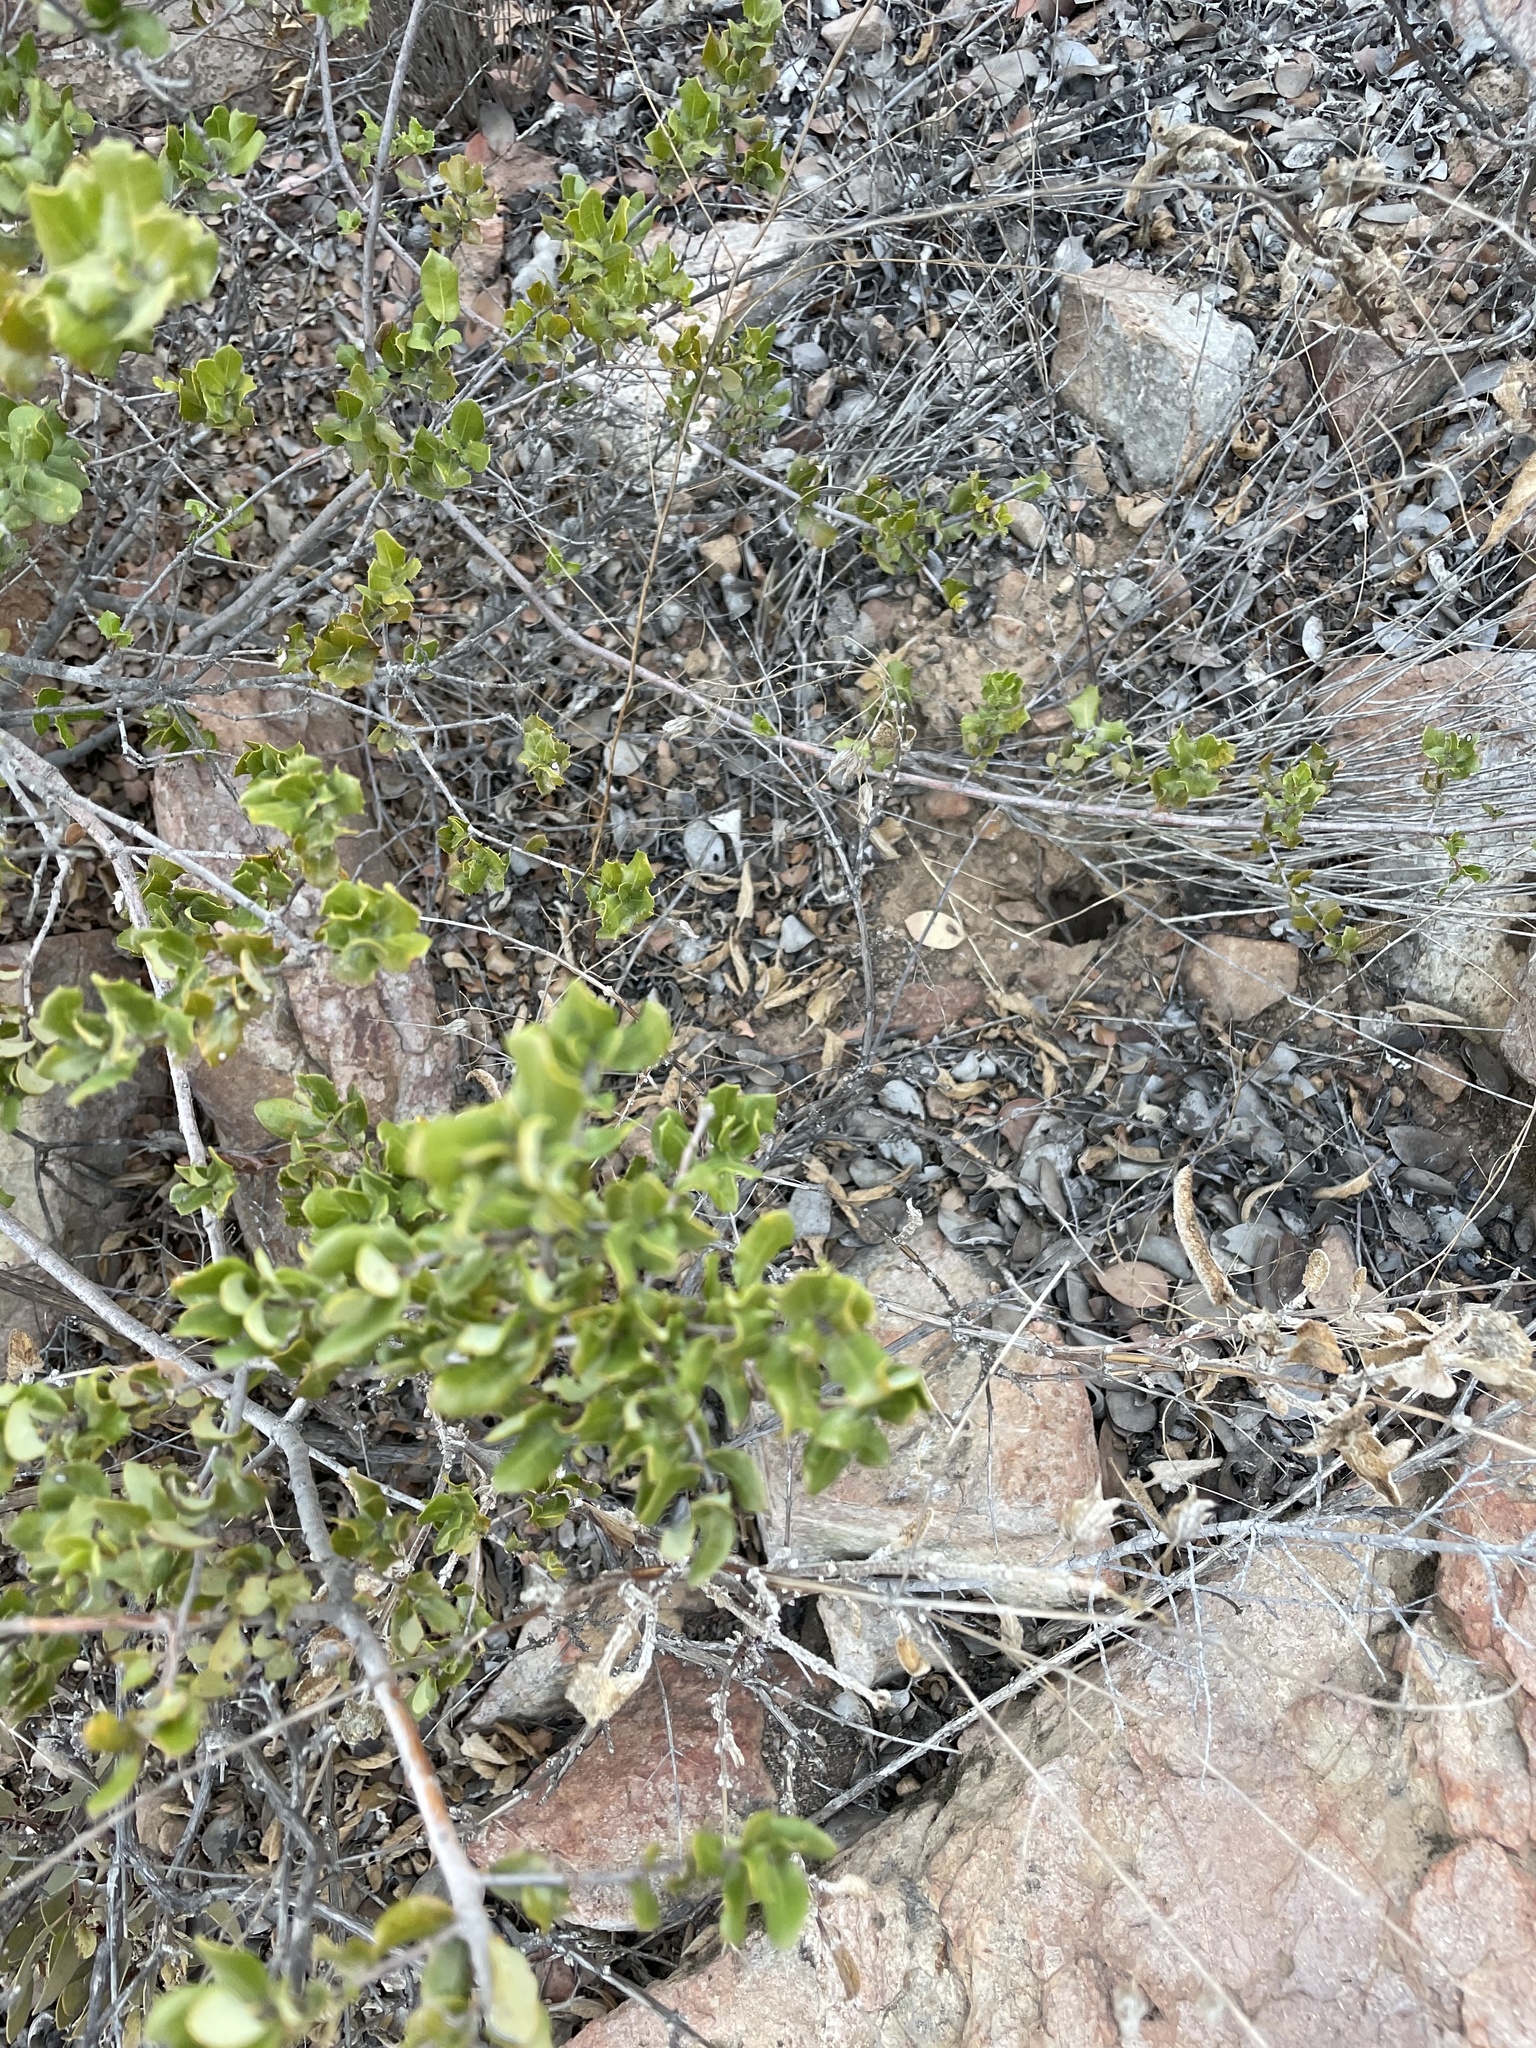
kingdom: Plantae
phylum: Tracheophyta
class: Magnoliopsida
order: Fagales
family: Fagaceae
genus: Quercus
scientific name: Quercus cedrosensis
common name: Cedros island oak
